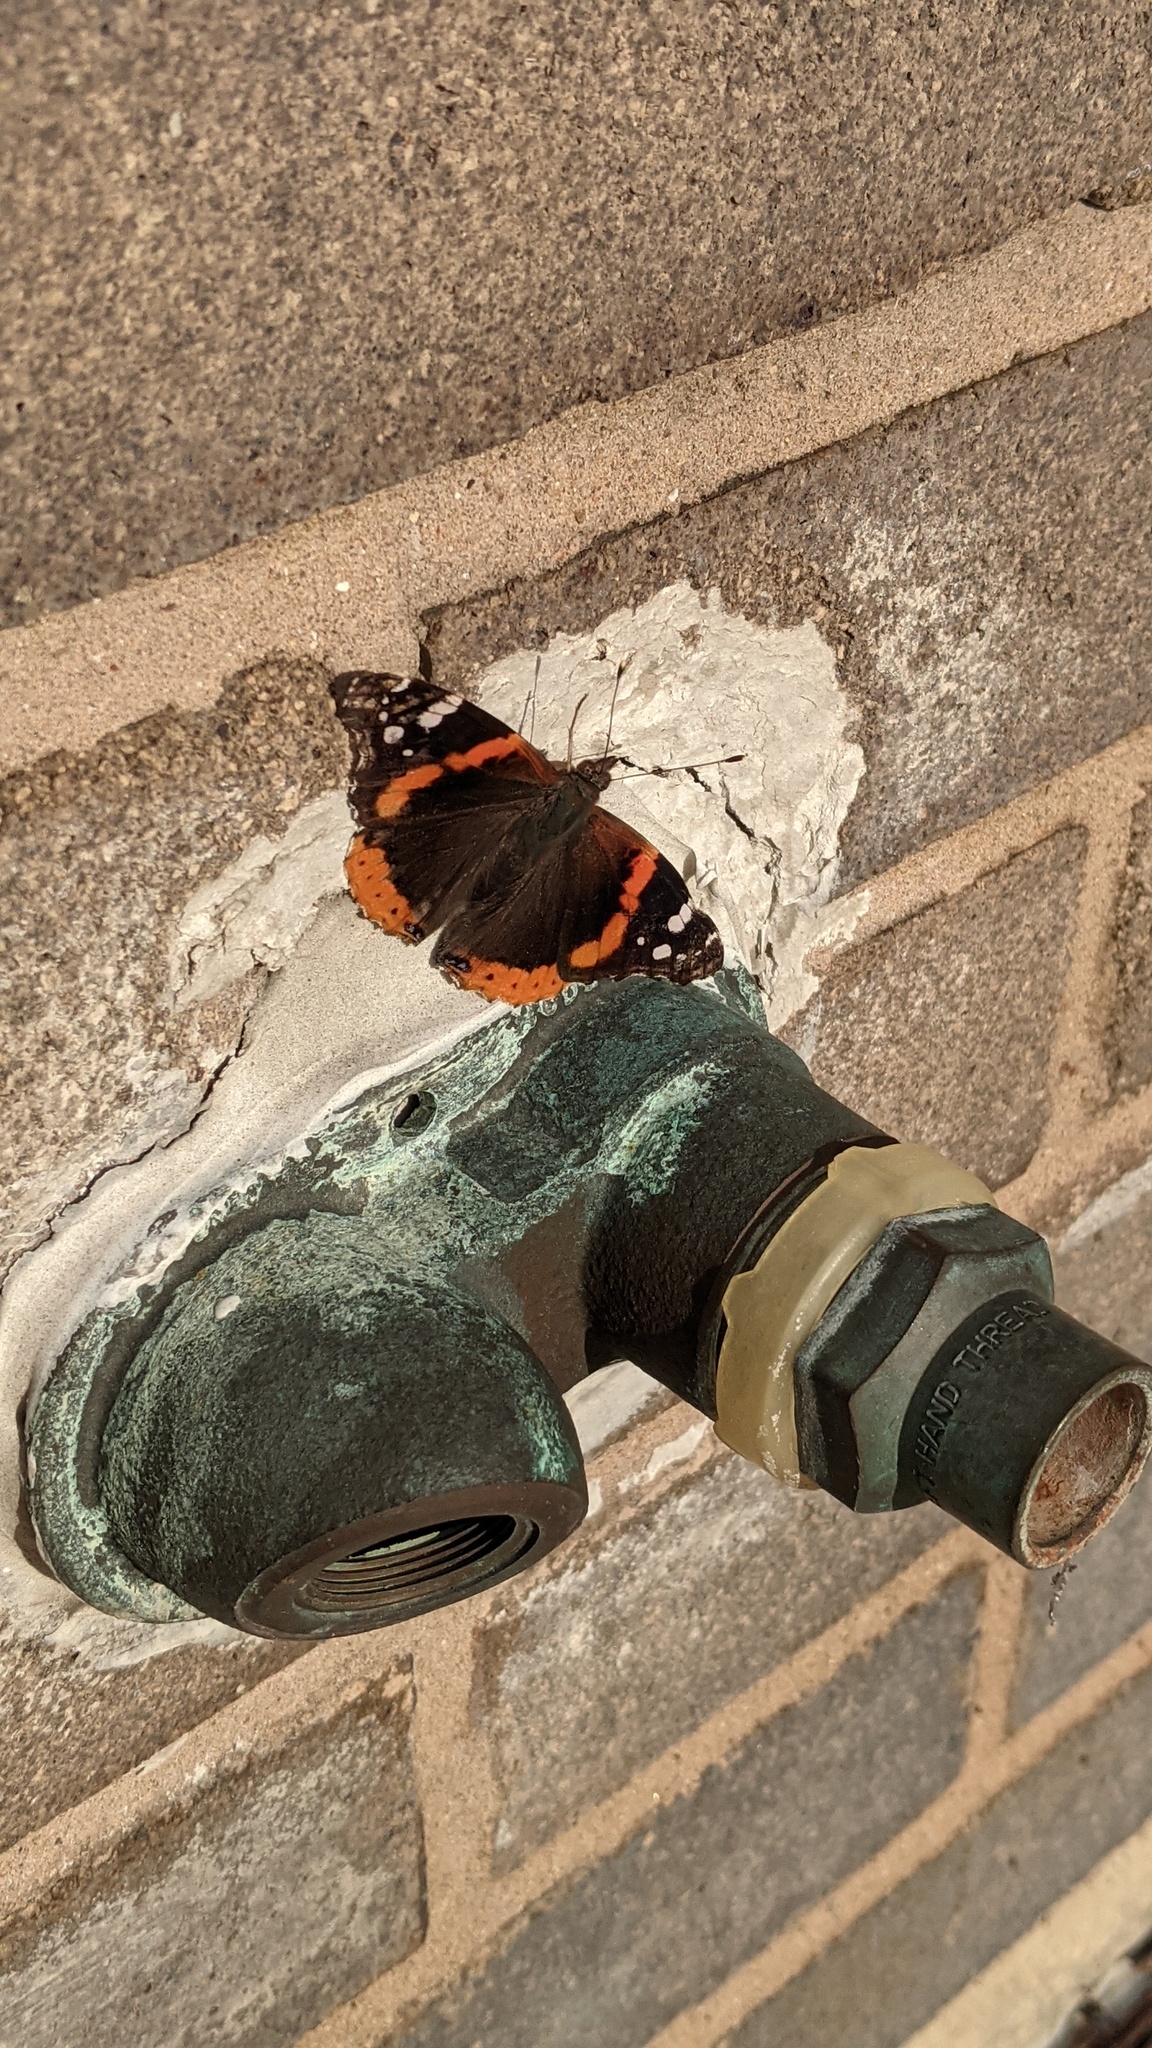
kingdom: Animalia
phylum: Arthropoda
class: Insecta
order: Lepidoptera
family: Nymphalidae
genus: Vanessa
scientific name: Vanessa atalanta
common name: Red admiral
